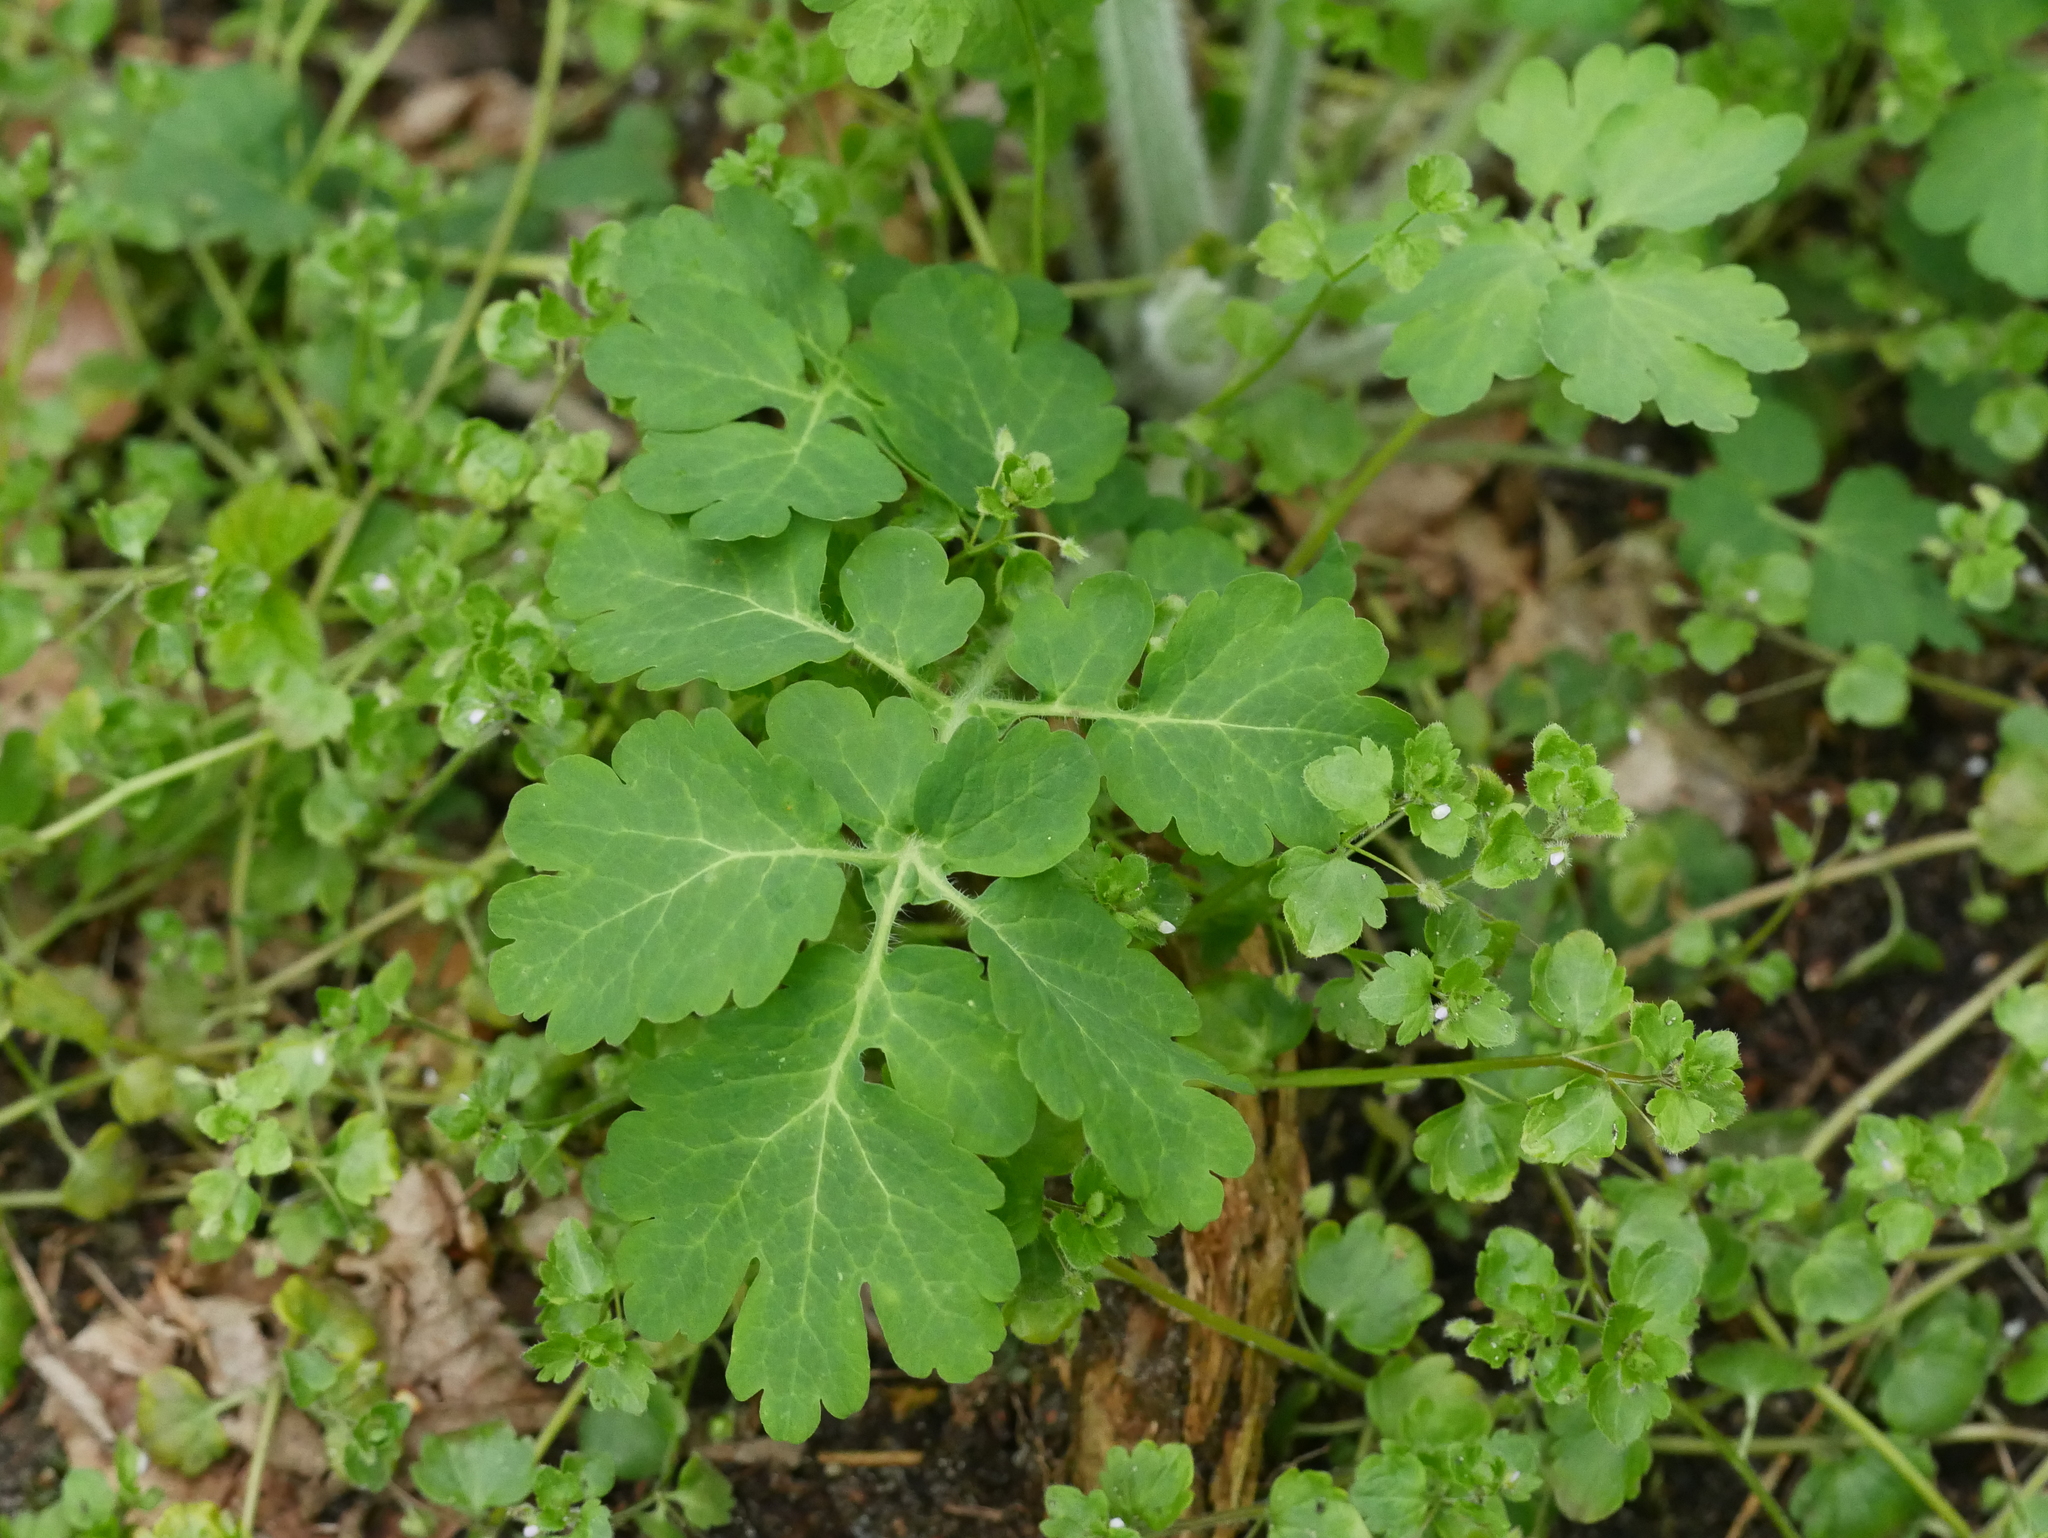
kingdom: Plantae
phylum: Tracheophyta
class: Magnoliopsida
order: Ranunculales
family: Papaveraceae
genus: Chelidonium
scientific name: Chelidonium majus
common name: Greater celandine
